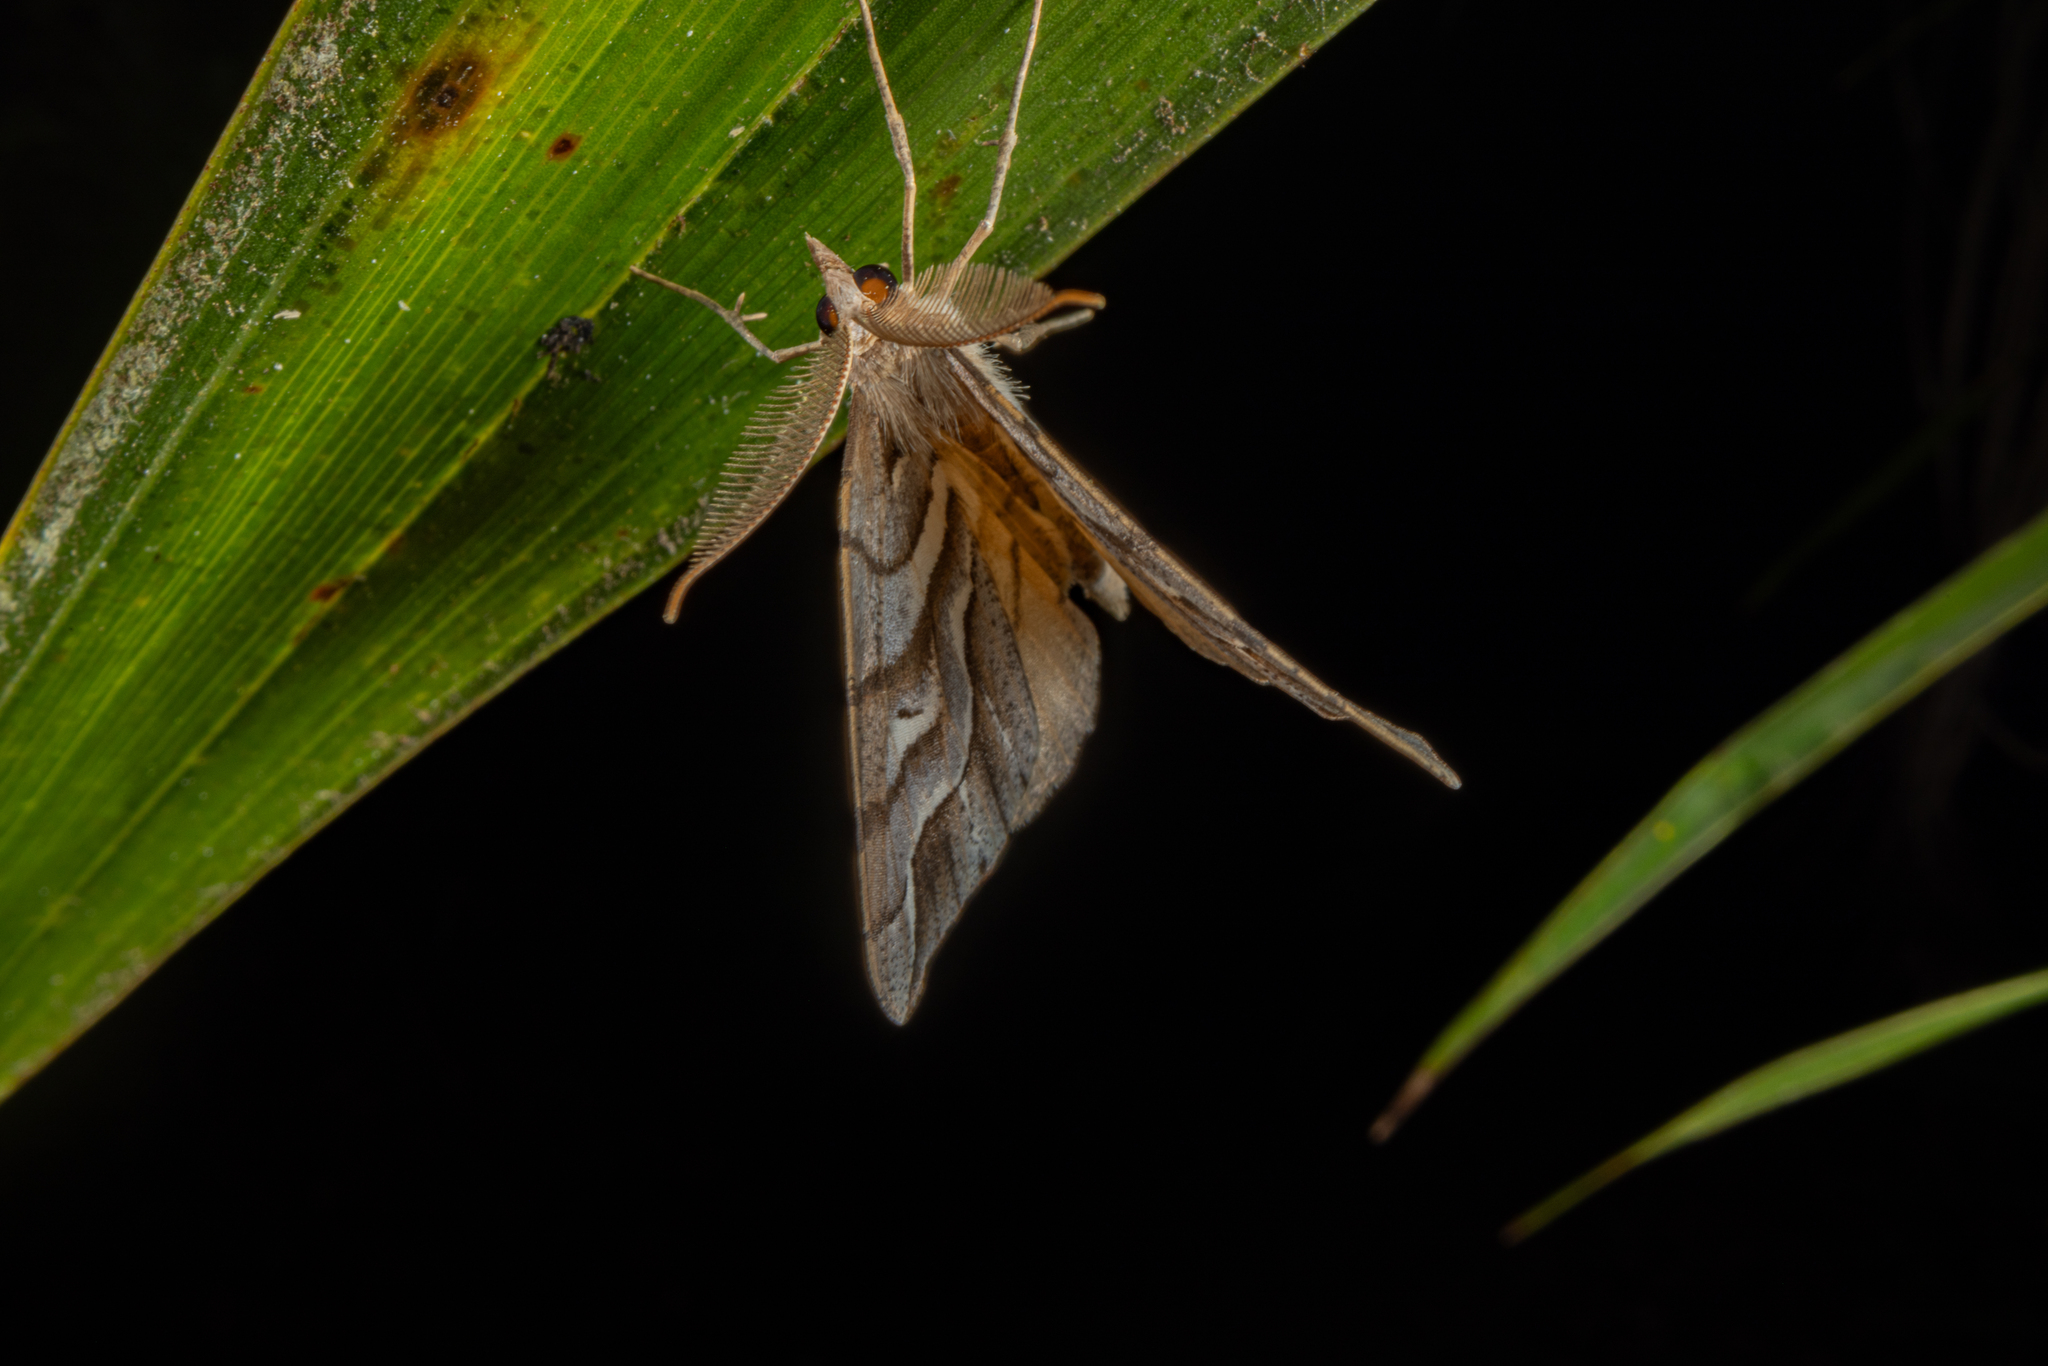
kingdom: Animalia
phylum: Arthropoda
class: Insecta
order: Lepidoptera
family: Geometridae
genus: Chalastra
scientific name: Chalastra aristarcha
